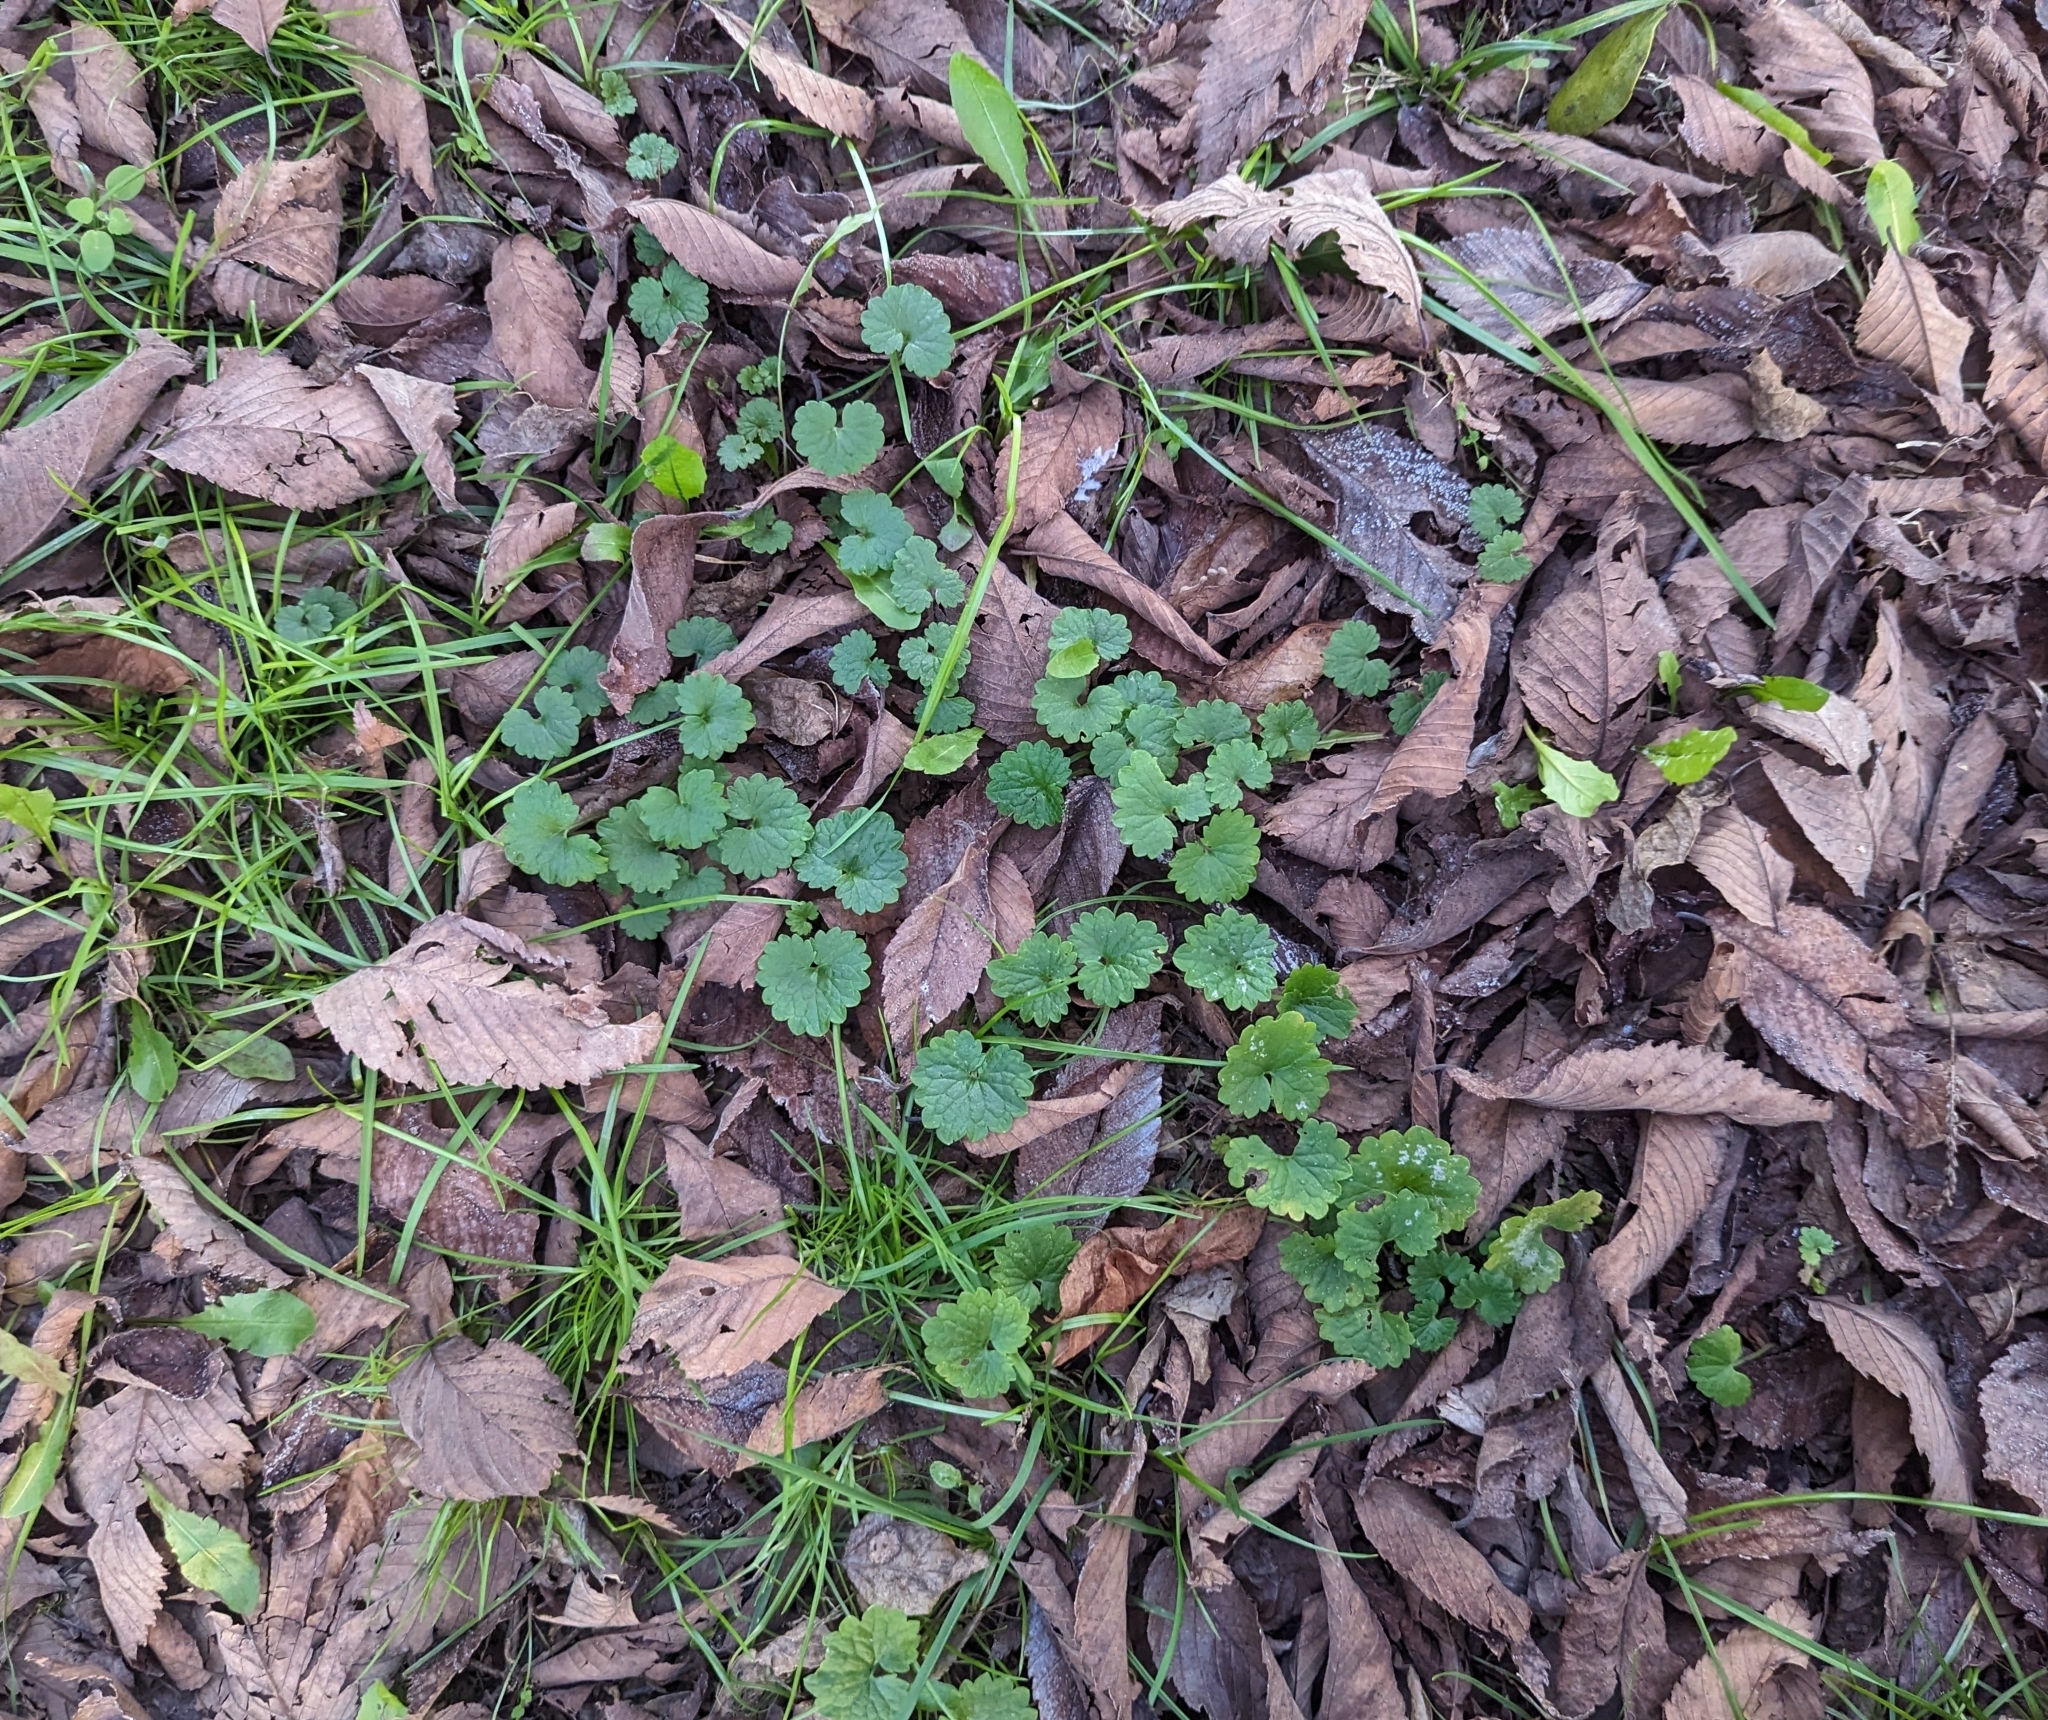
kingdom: Plantae
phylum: Tracheophyta
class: Magnoliopsida
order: Lamiales
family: Lamiaceae
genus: Glechoma
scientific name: Glechoma hederacea
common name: Ground ivy
